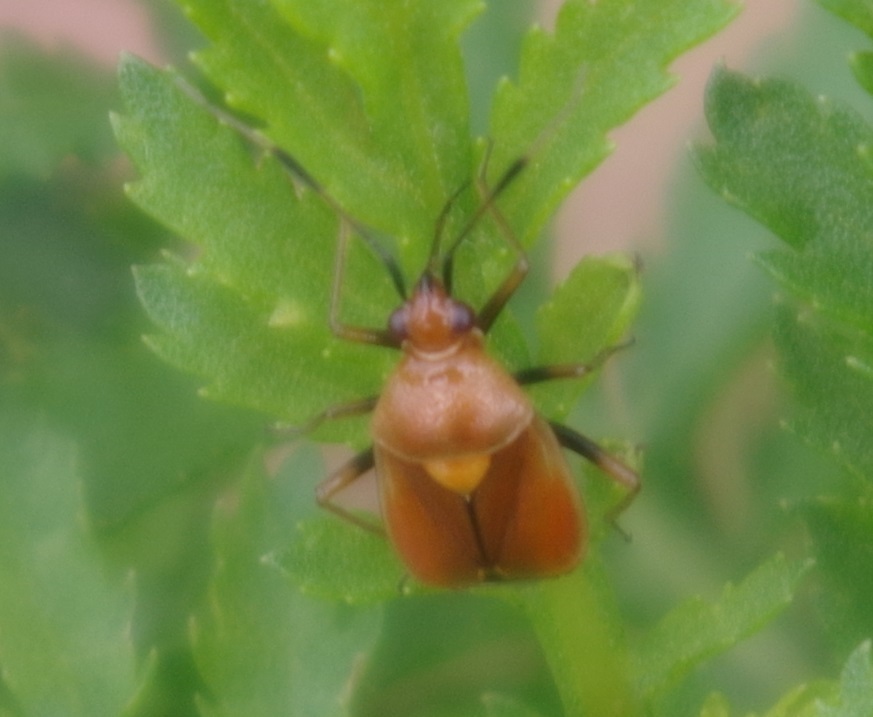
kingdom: Animalia
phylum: Arthropoda
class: Insecta
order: Hemiptera
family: Miridae
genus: Deraeocoris
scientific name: Deraeocoris ruber
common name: Plant bug
